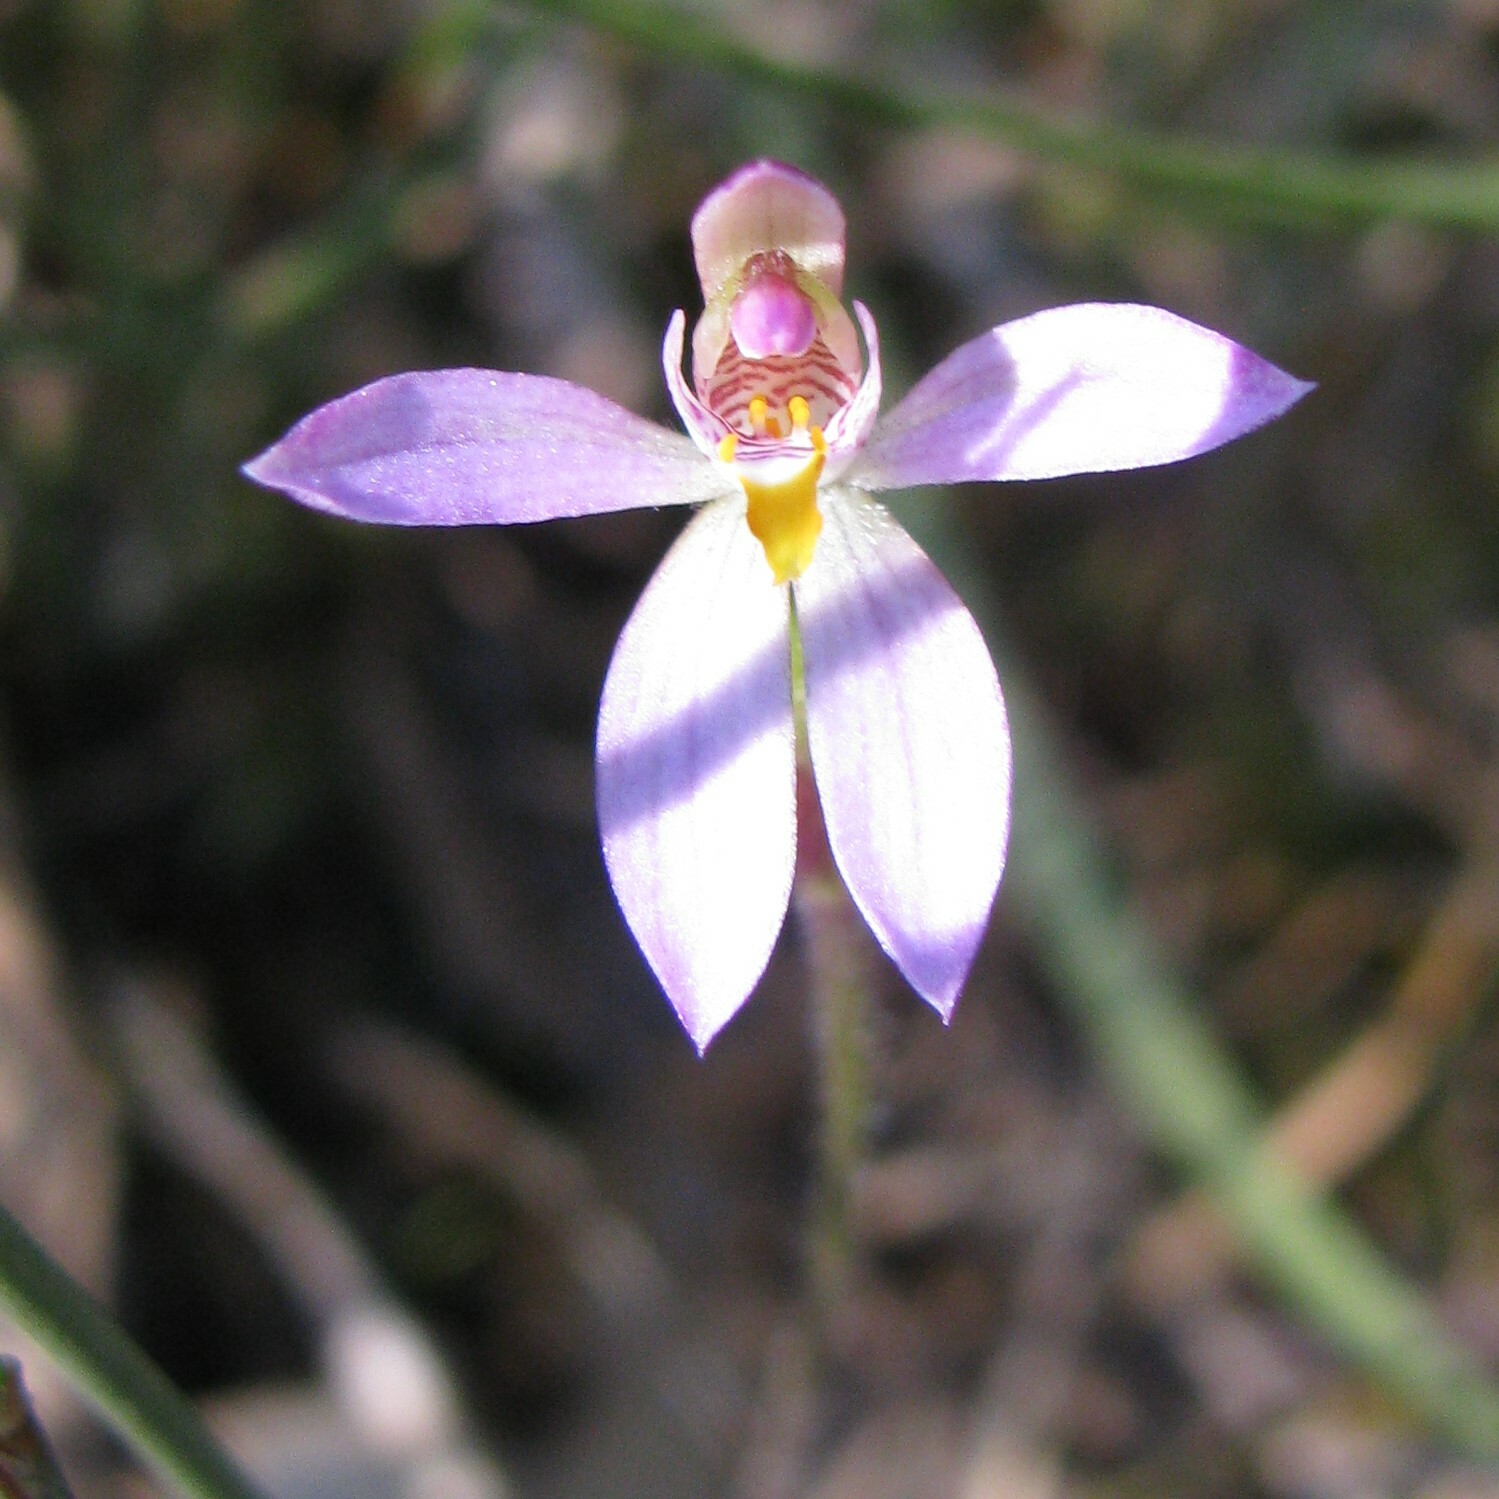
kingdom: Plantae
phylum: Tracheophyta
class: Liliopsida
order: Asparagales
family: Orchidaceae
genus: Caladenia
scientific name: Caladenia alata
